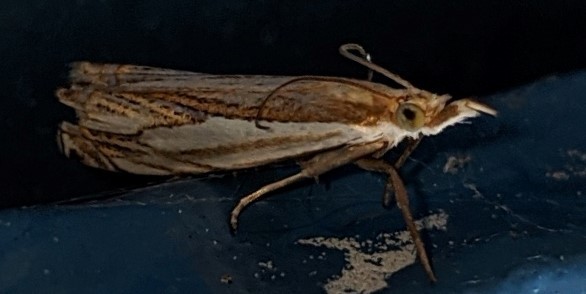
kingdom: Animalia
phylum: Arthropoda
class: Insecta
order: Lepidoptera
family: Crambidae
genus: Crambus
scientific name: Crambus saltuellus
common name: Pasture grass-veneer
